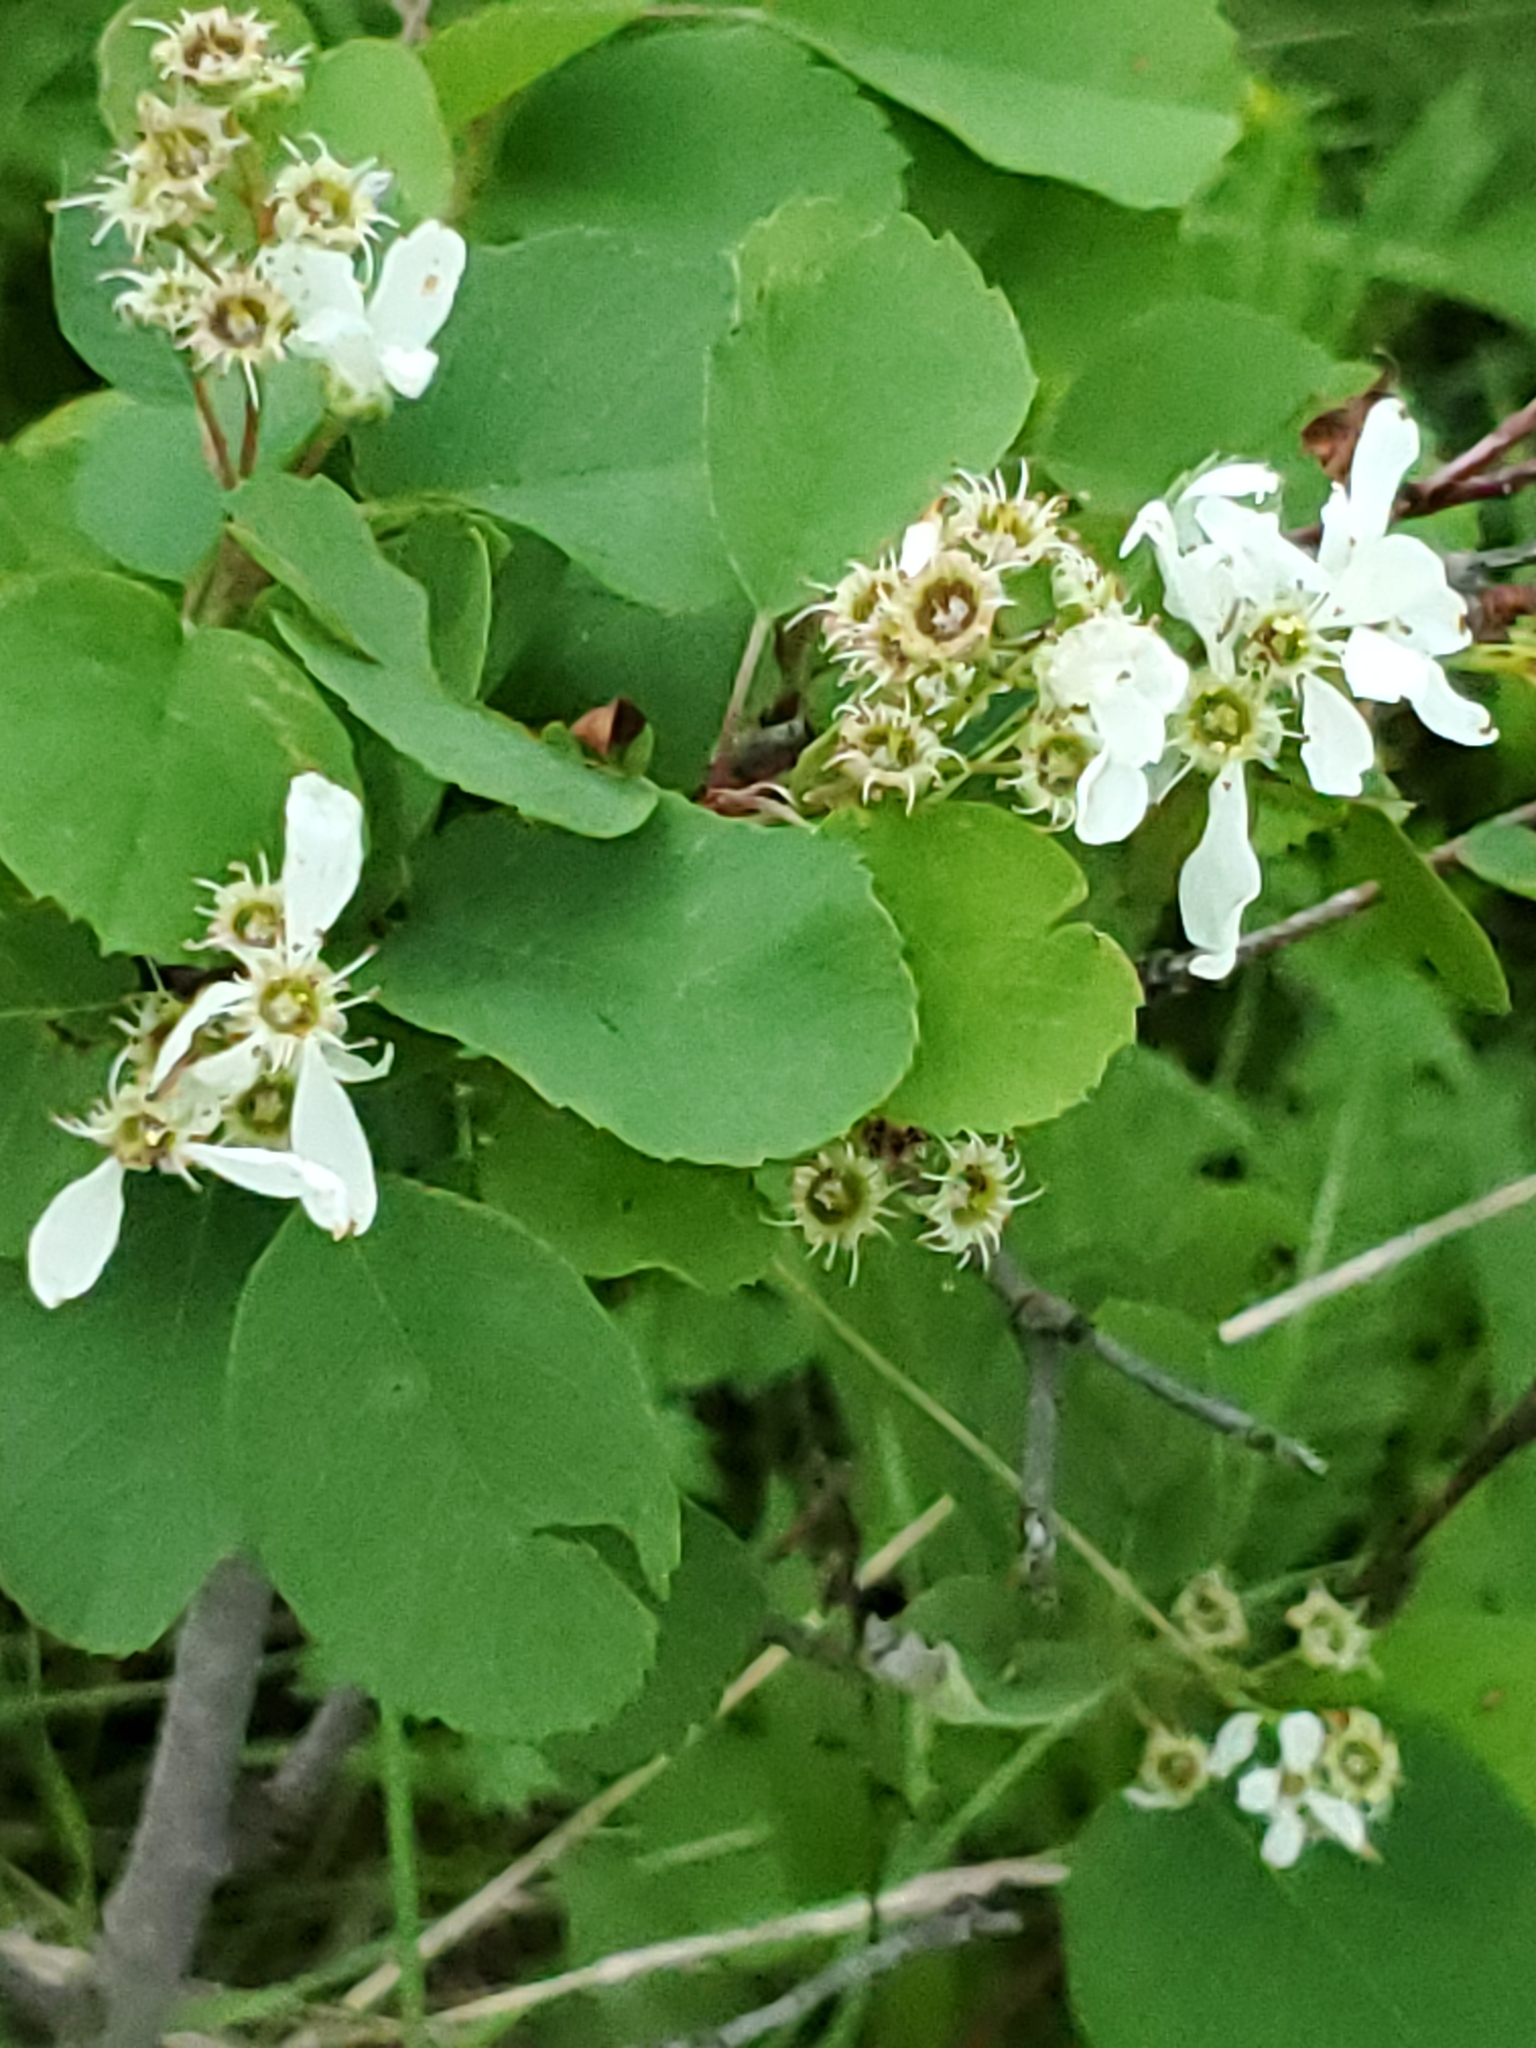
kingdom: Plantae
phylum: Tracheophyta
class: Magnoliopsida
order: Rosales
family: Rosaceae
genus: Amelanchier
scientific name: Amelanchier alnifolia
